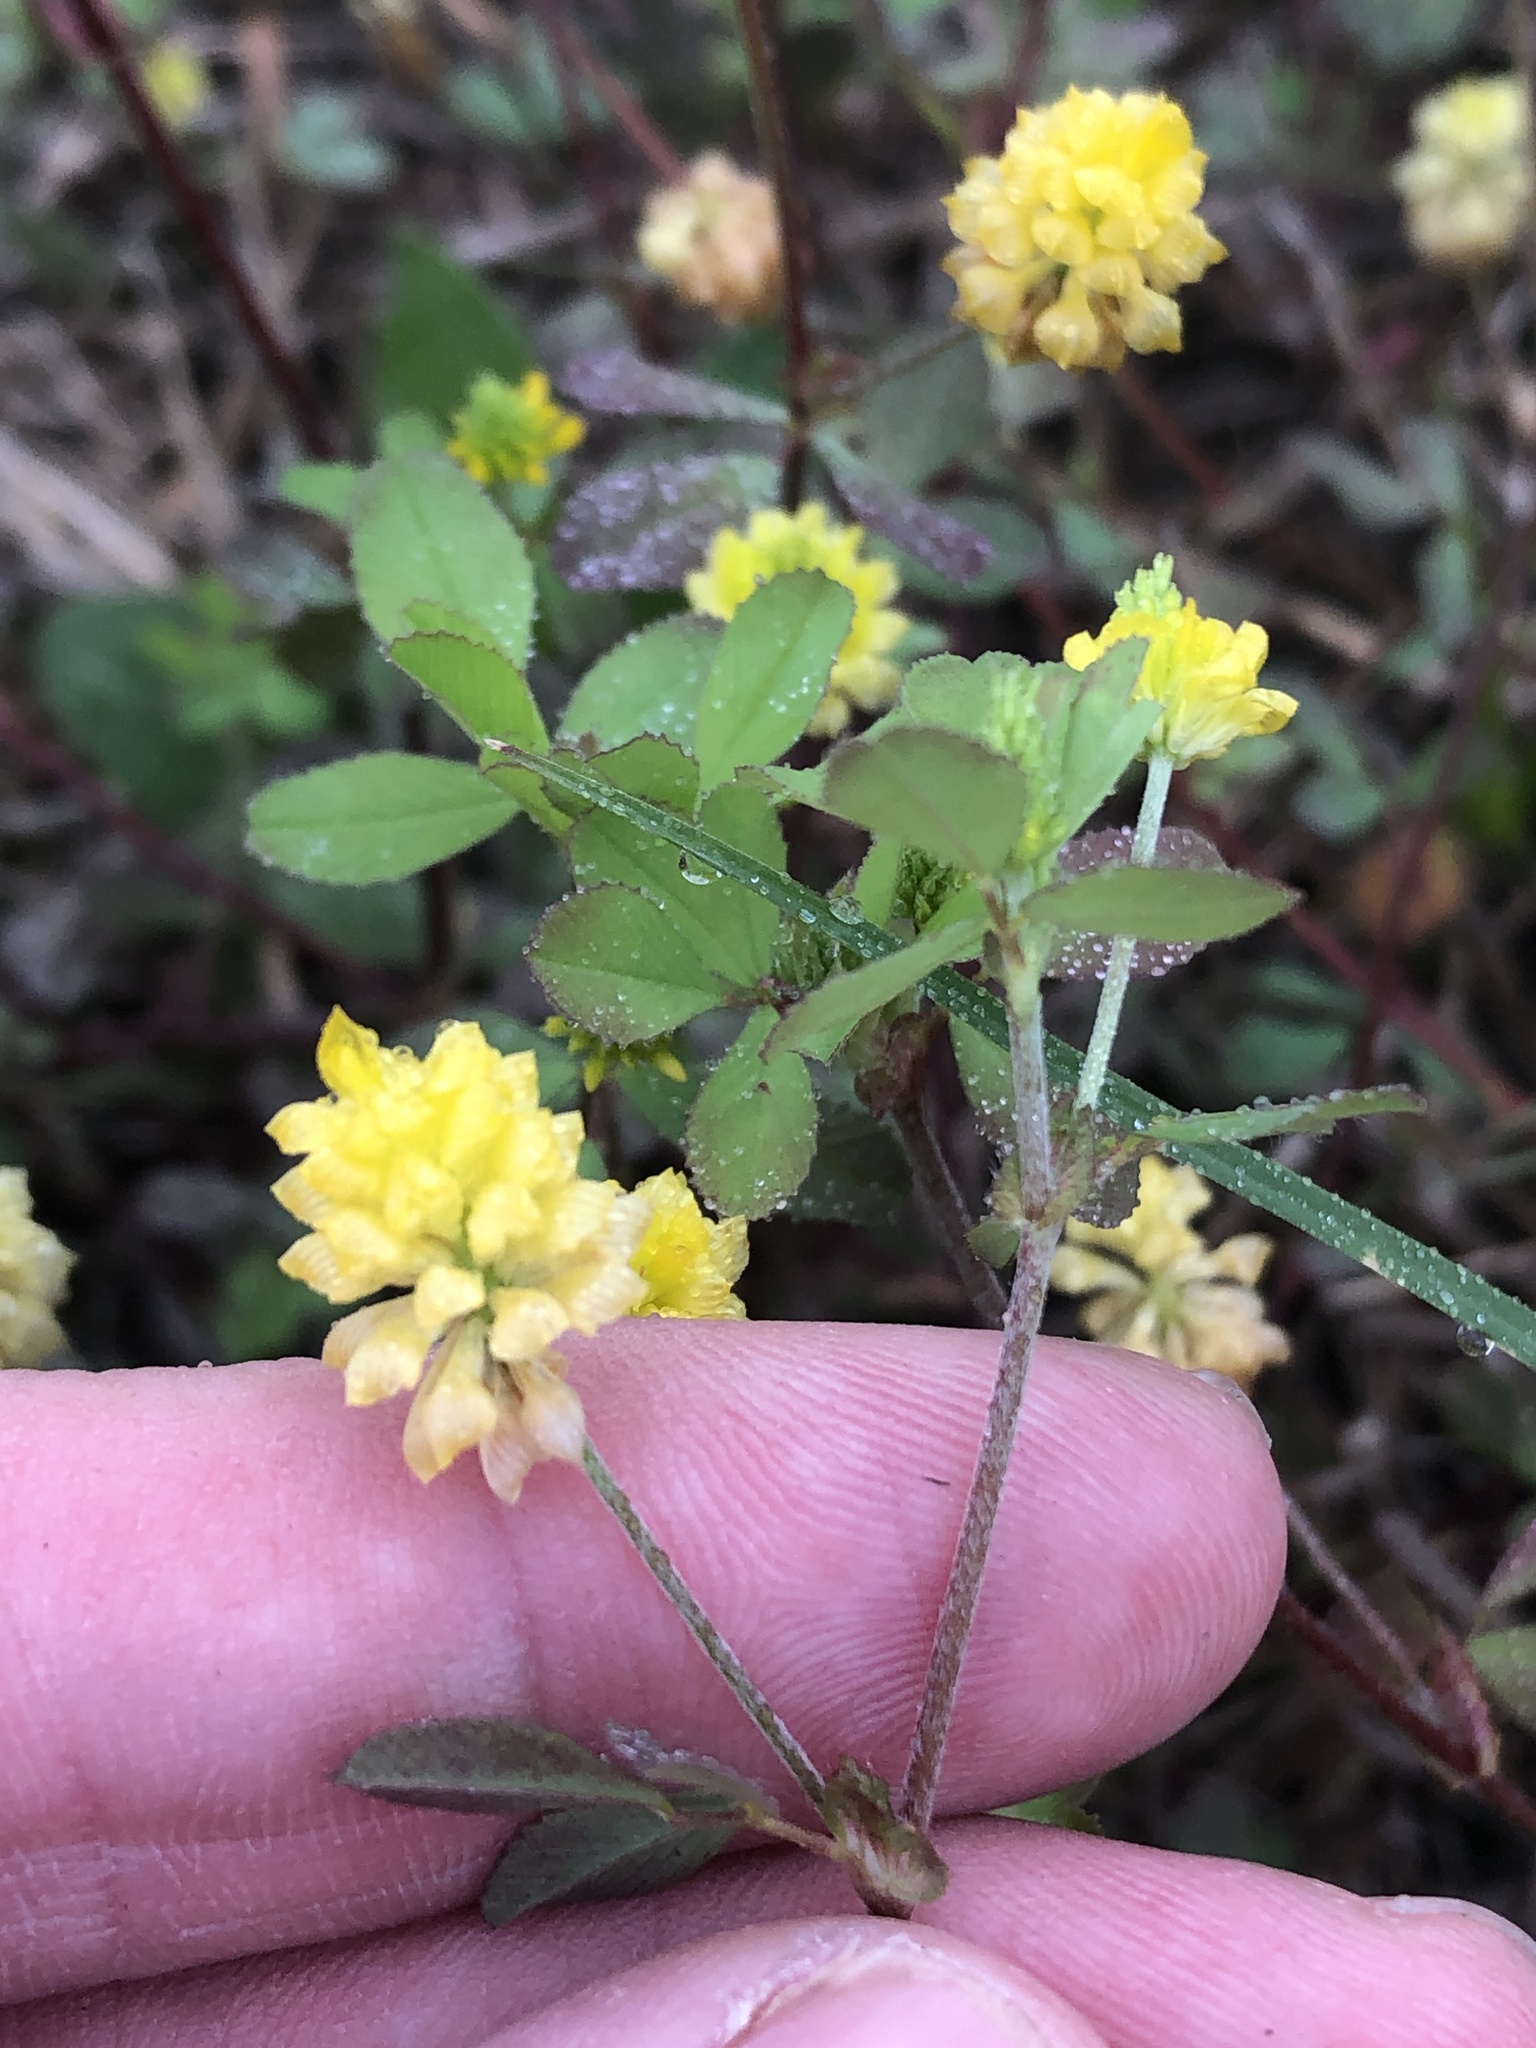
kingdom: Plantae
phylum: Tracheophyta
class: Magnoliopsida
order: Fabales
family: Fabaceae
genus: Trifolium
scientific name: Trifolium campestre
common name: Field clover
